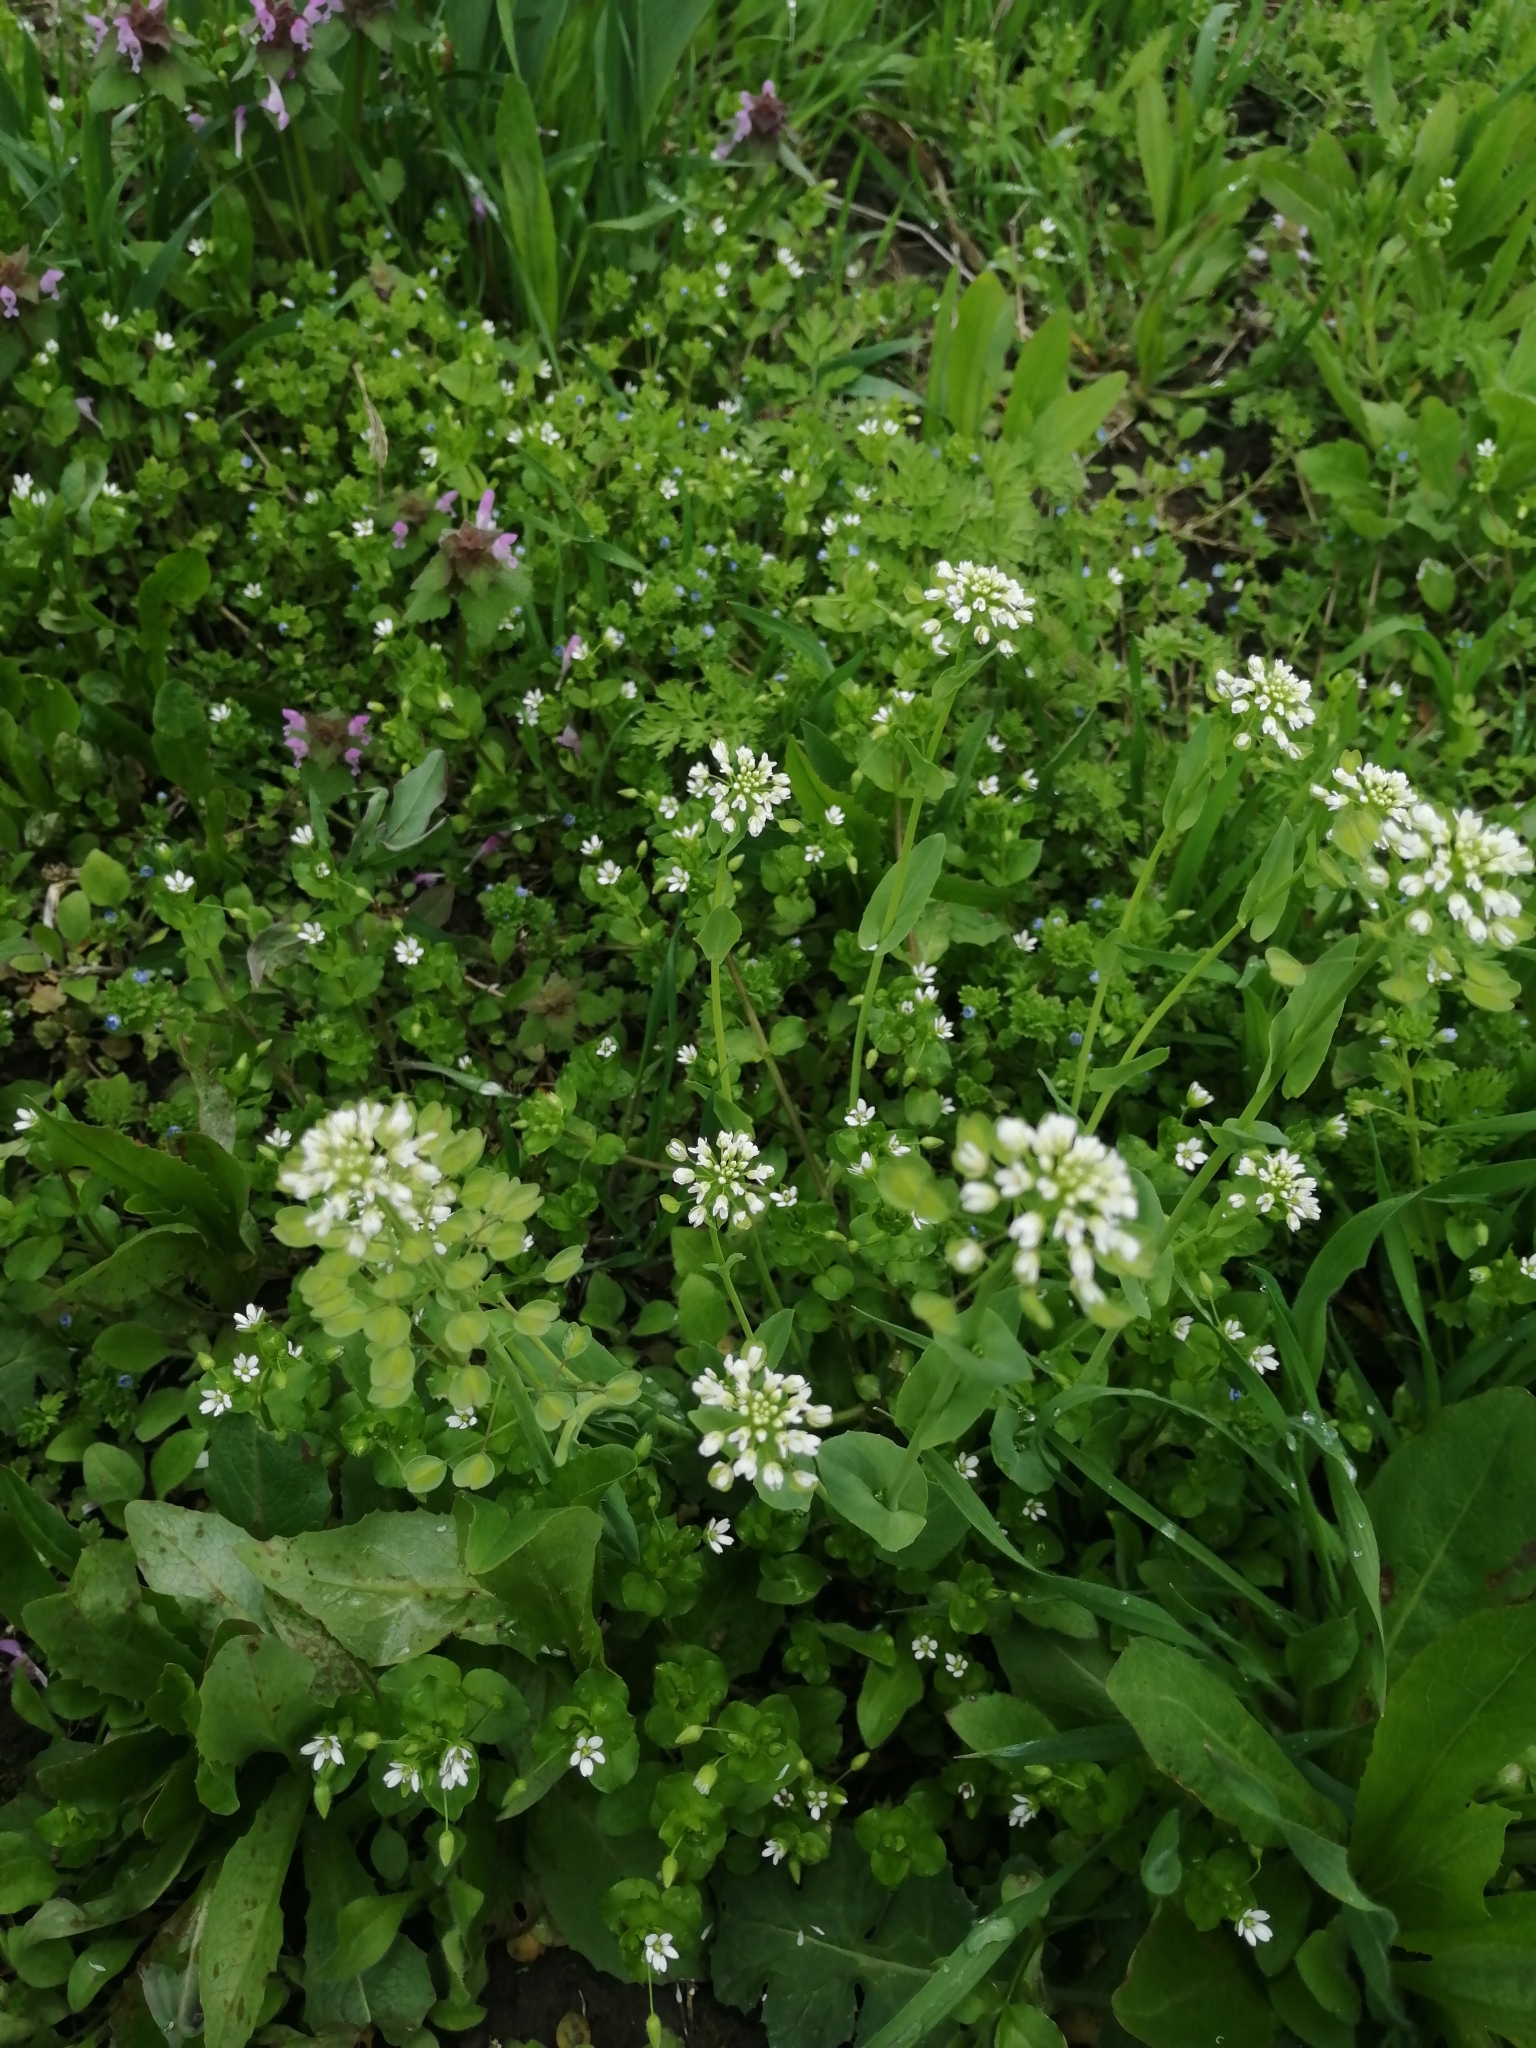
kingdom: Plantae
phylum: Tracheophyta
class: Magnoliopsida
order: Brassicales
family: Brassicaceae
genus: Noccaea
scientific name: Noccaea perfoliata
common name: Perfoliate pennycress
